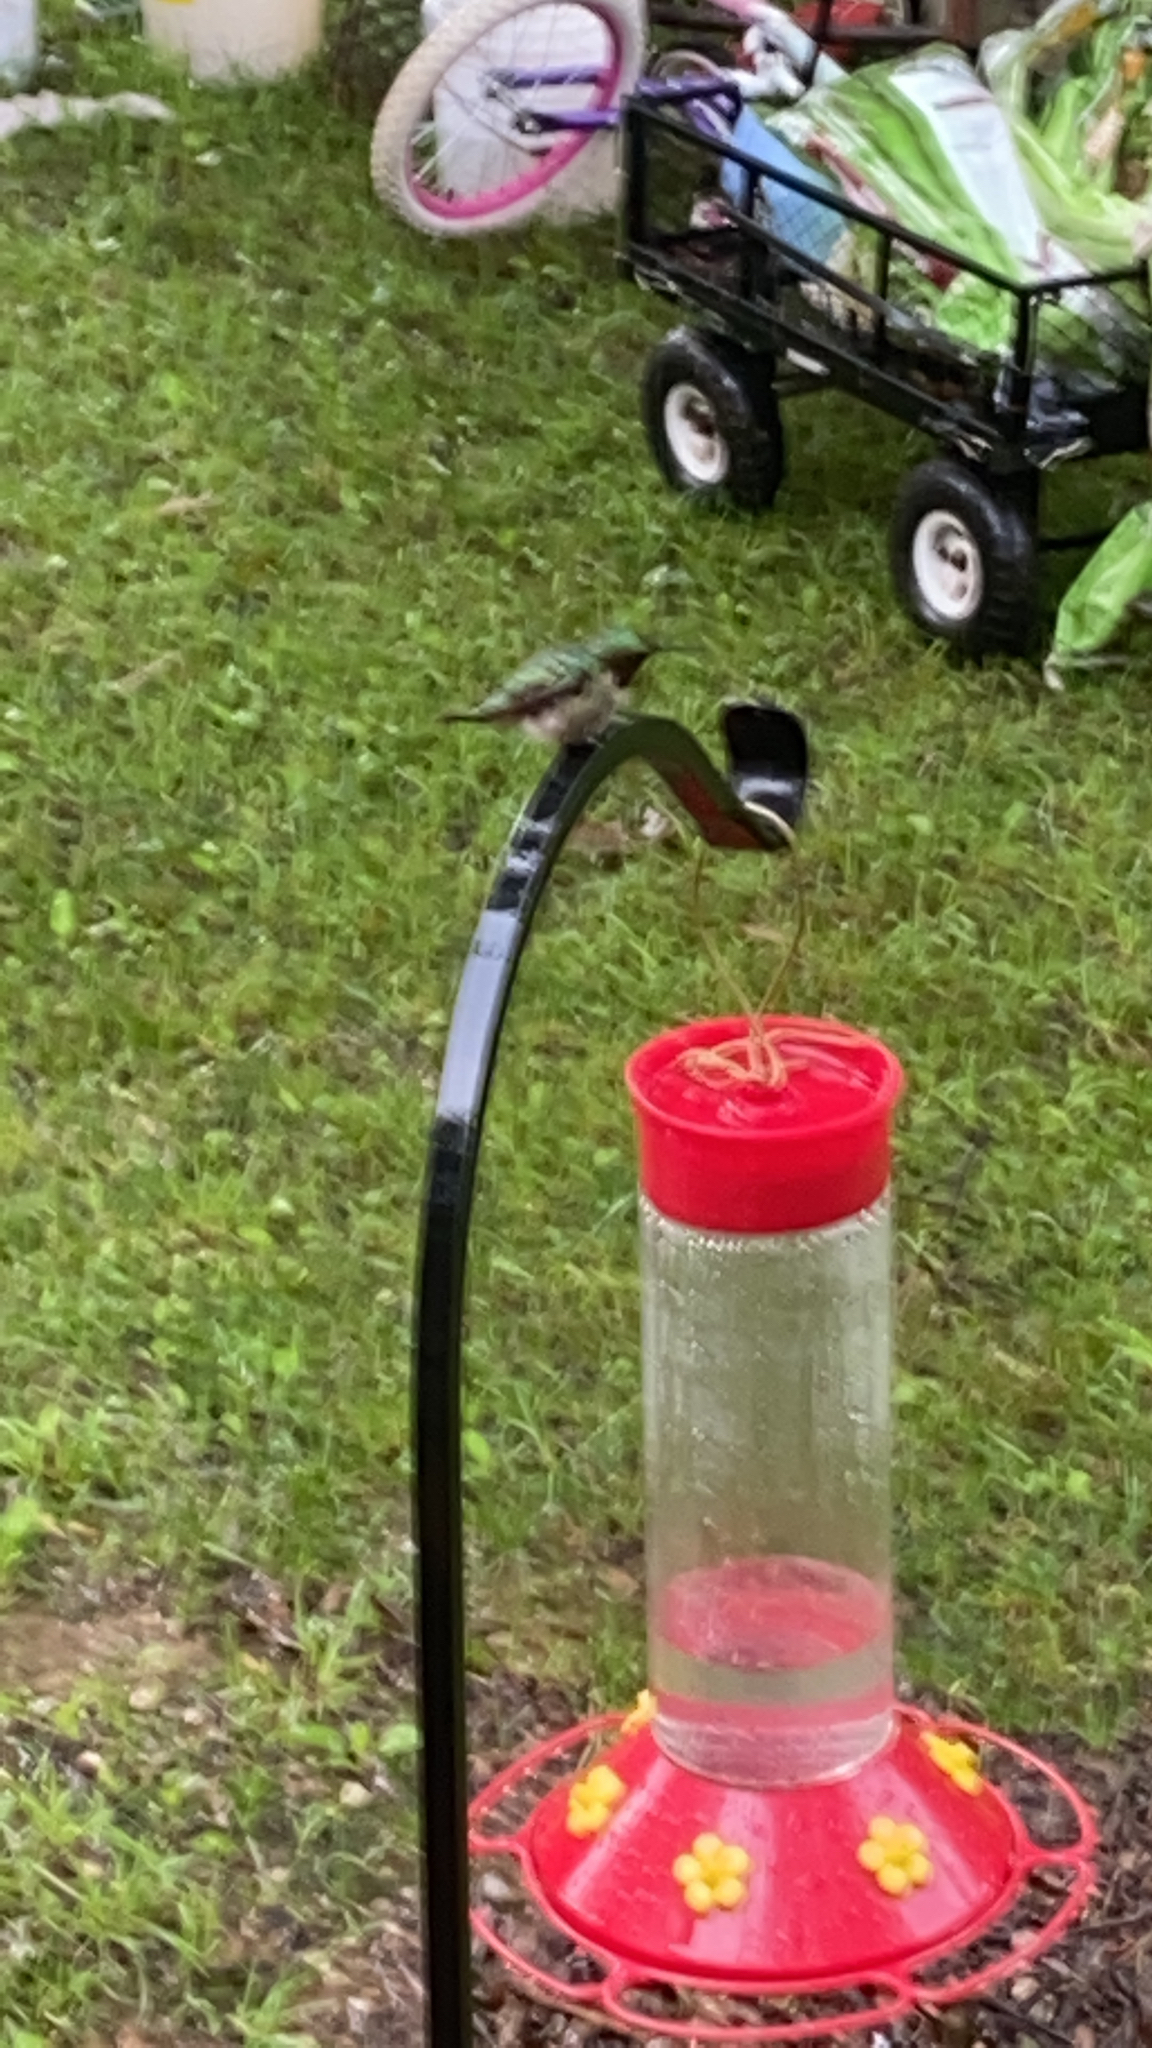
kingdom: Animalia
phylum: Chordata
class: Aves
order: Apodiformes
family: Trochilidae
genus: Archilochus
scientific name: Archilochus colubris
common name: Ruby-throated hummingbird
